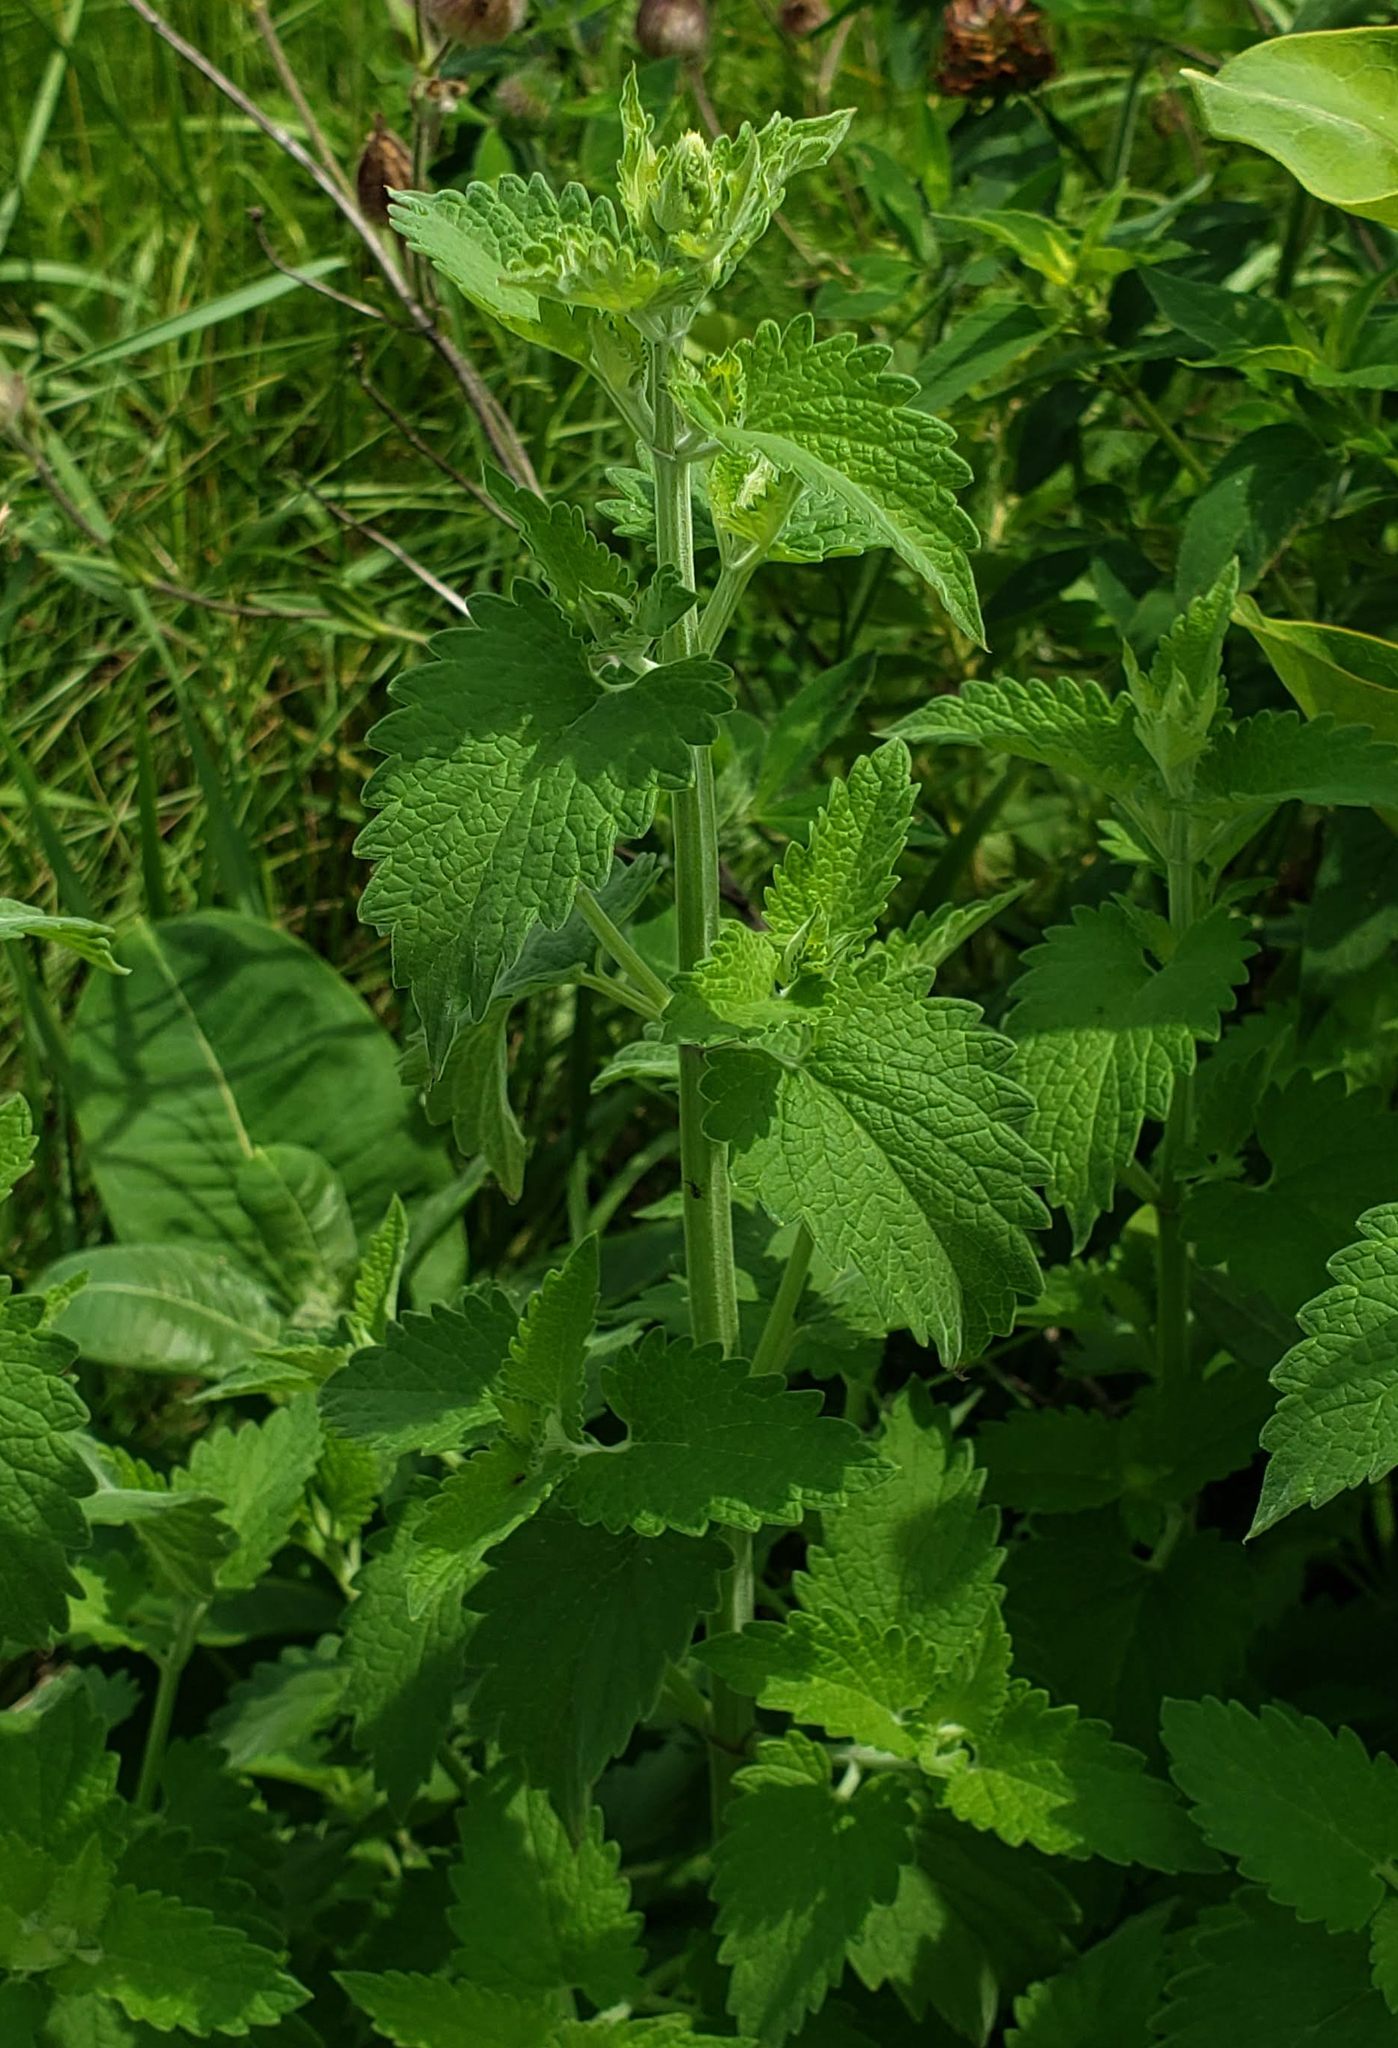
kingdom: Plantae
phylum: Tracheophyta
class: Magnoliopsida
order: Lamiales
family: Lamiaceae
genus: Nepeta
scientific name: Nepeta cataria
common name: Catnip
